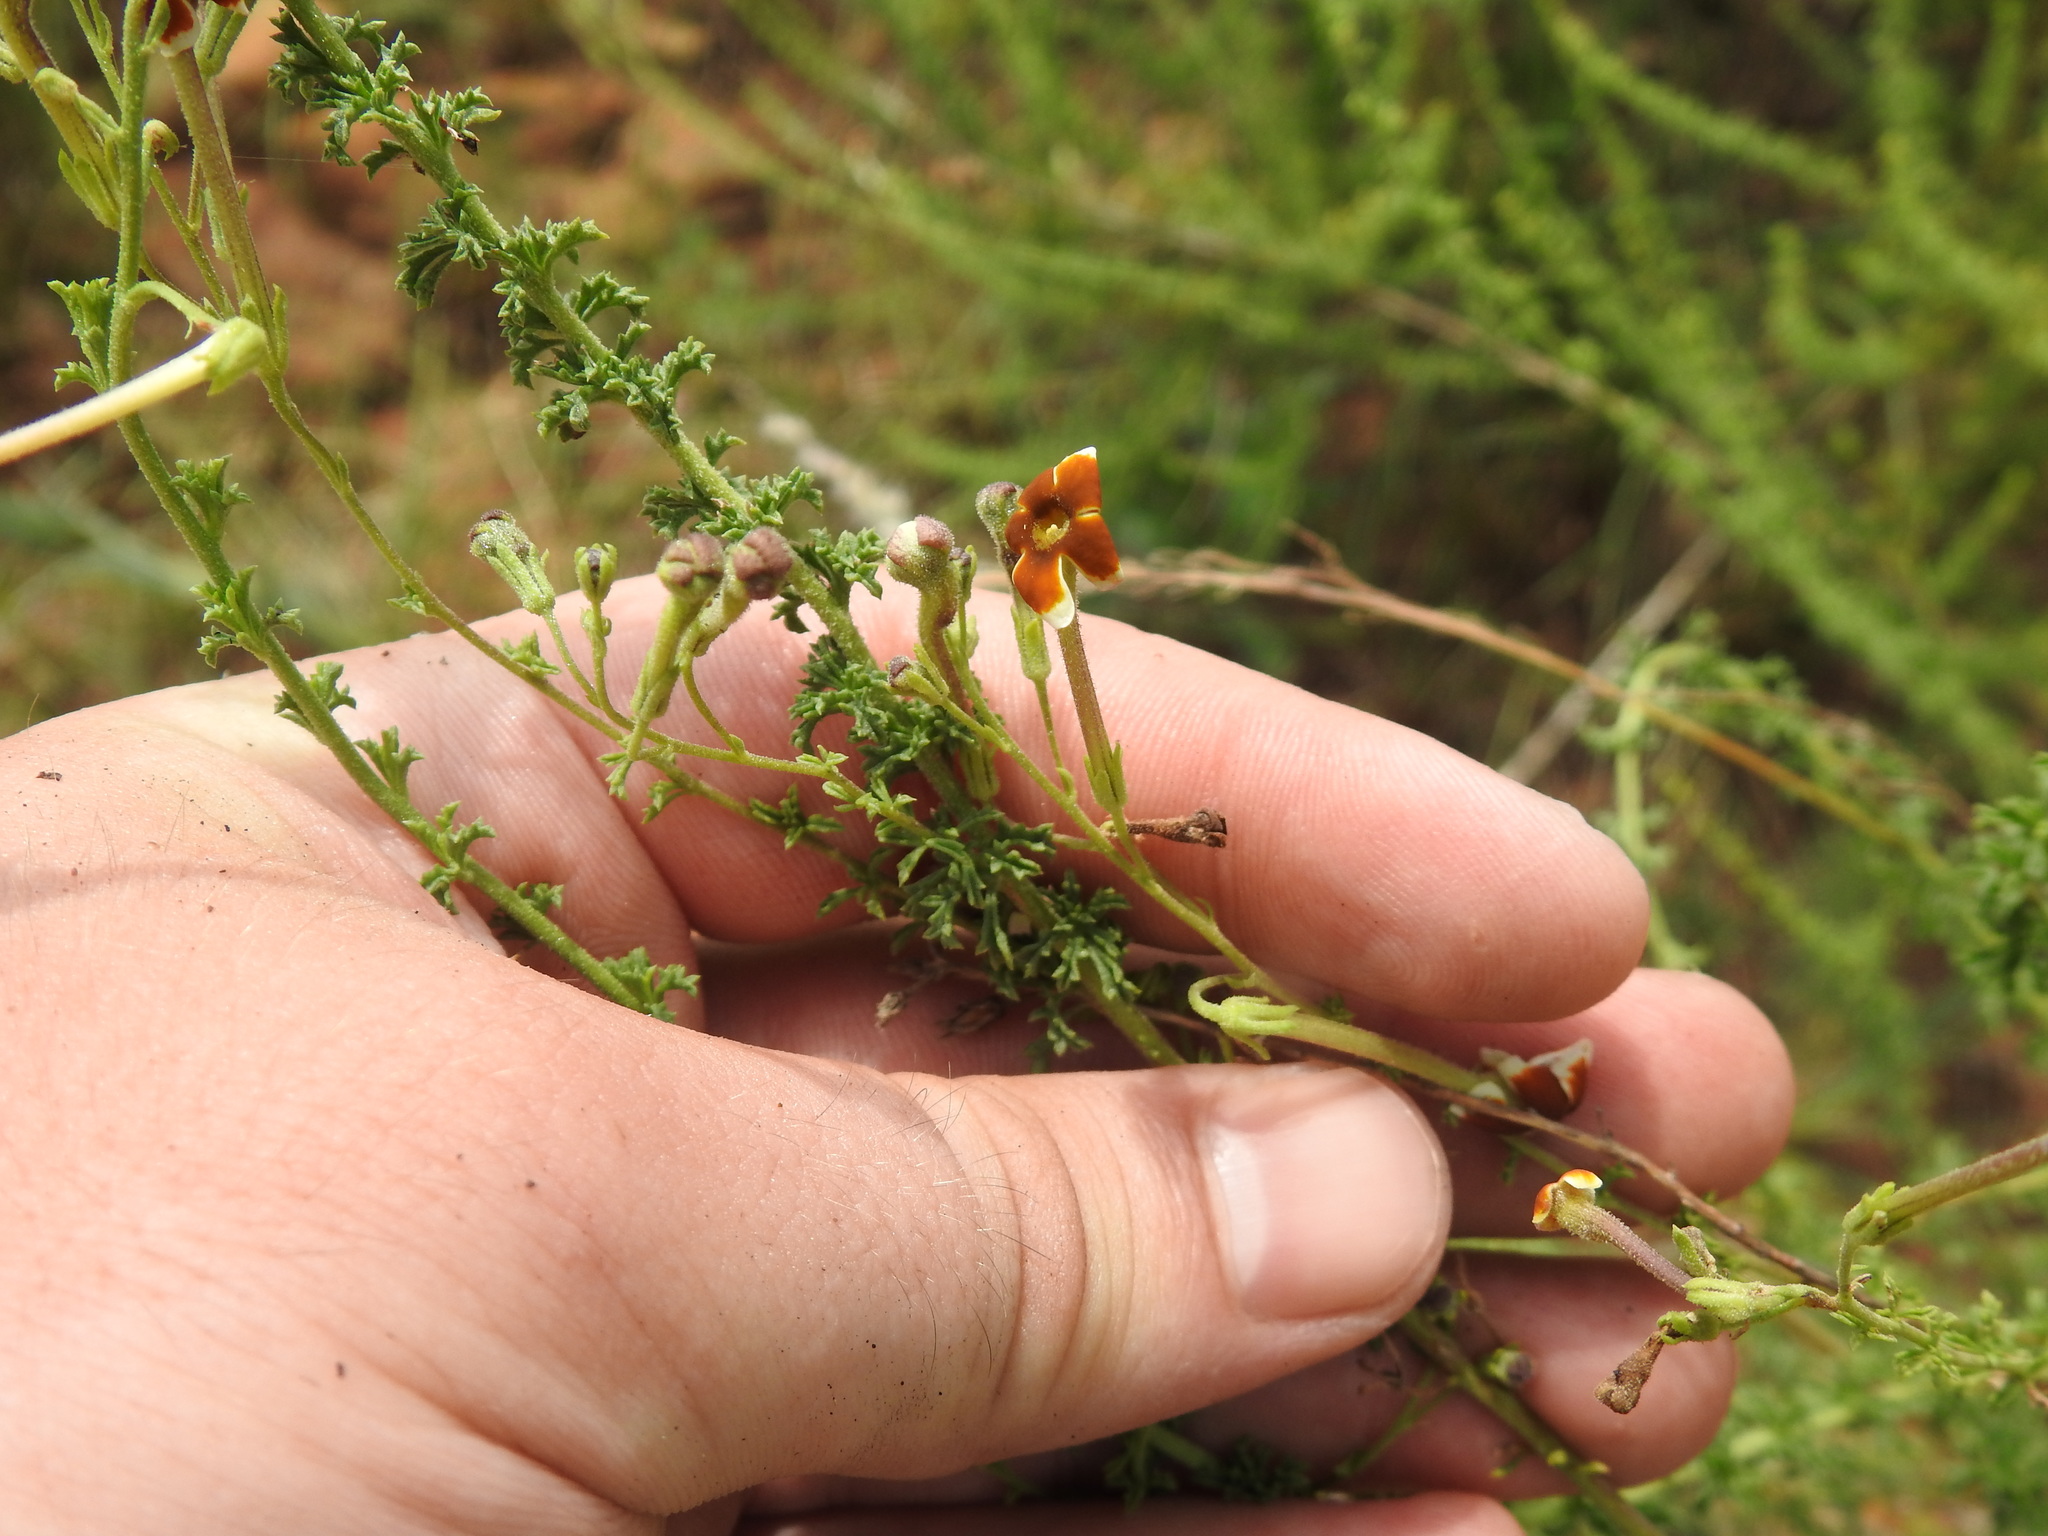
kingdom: Plantae
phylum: Tracheophyta
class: Magnoliopsida
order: Lamiales
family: Scrophulariaceae
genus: Jamesbrittenia
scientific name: Jamesbrittenia burkeana
